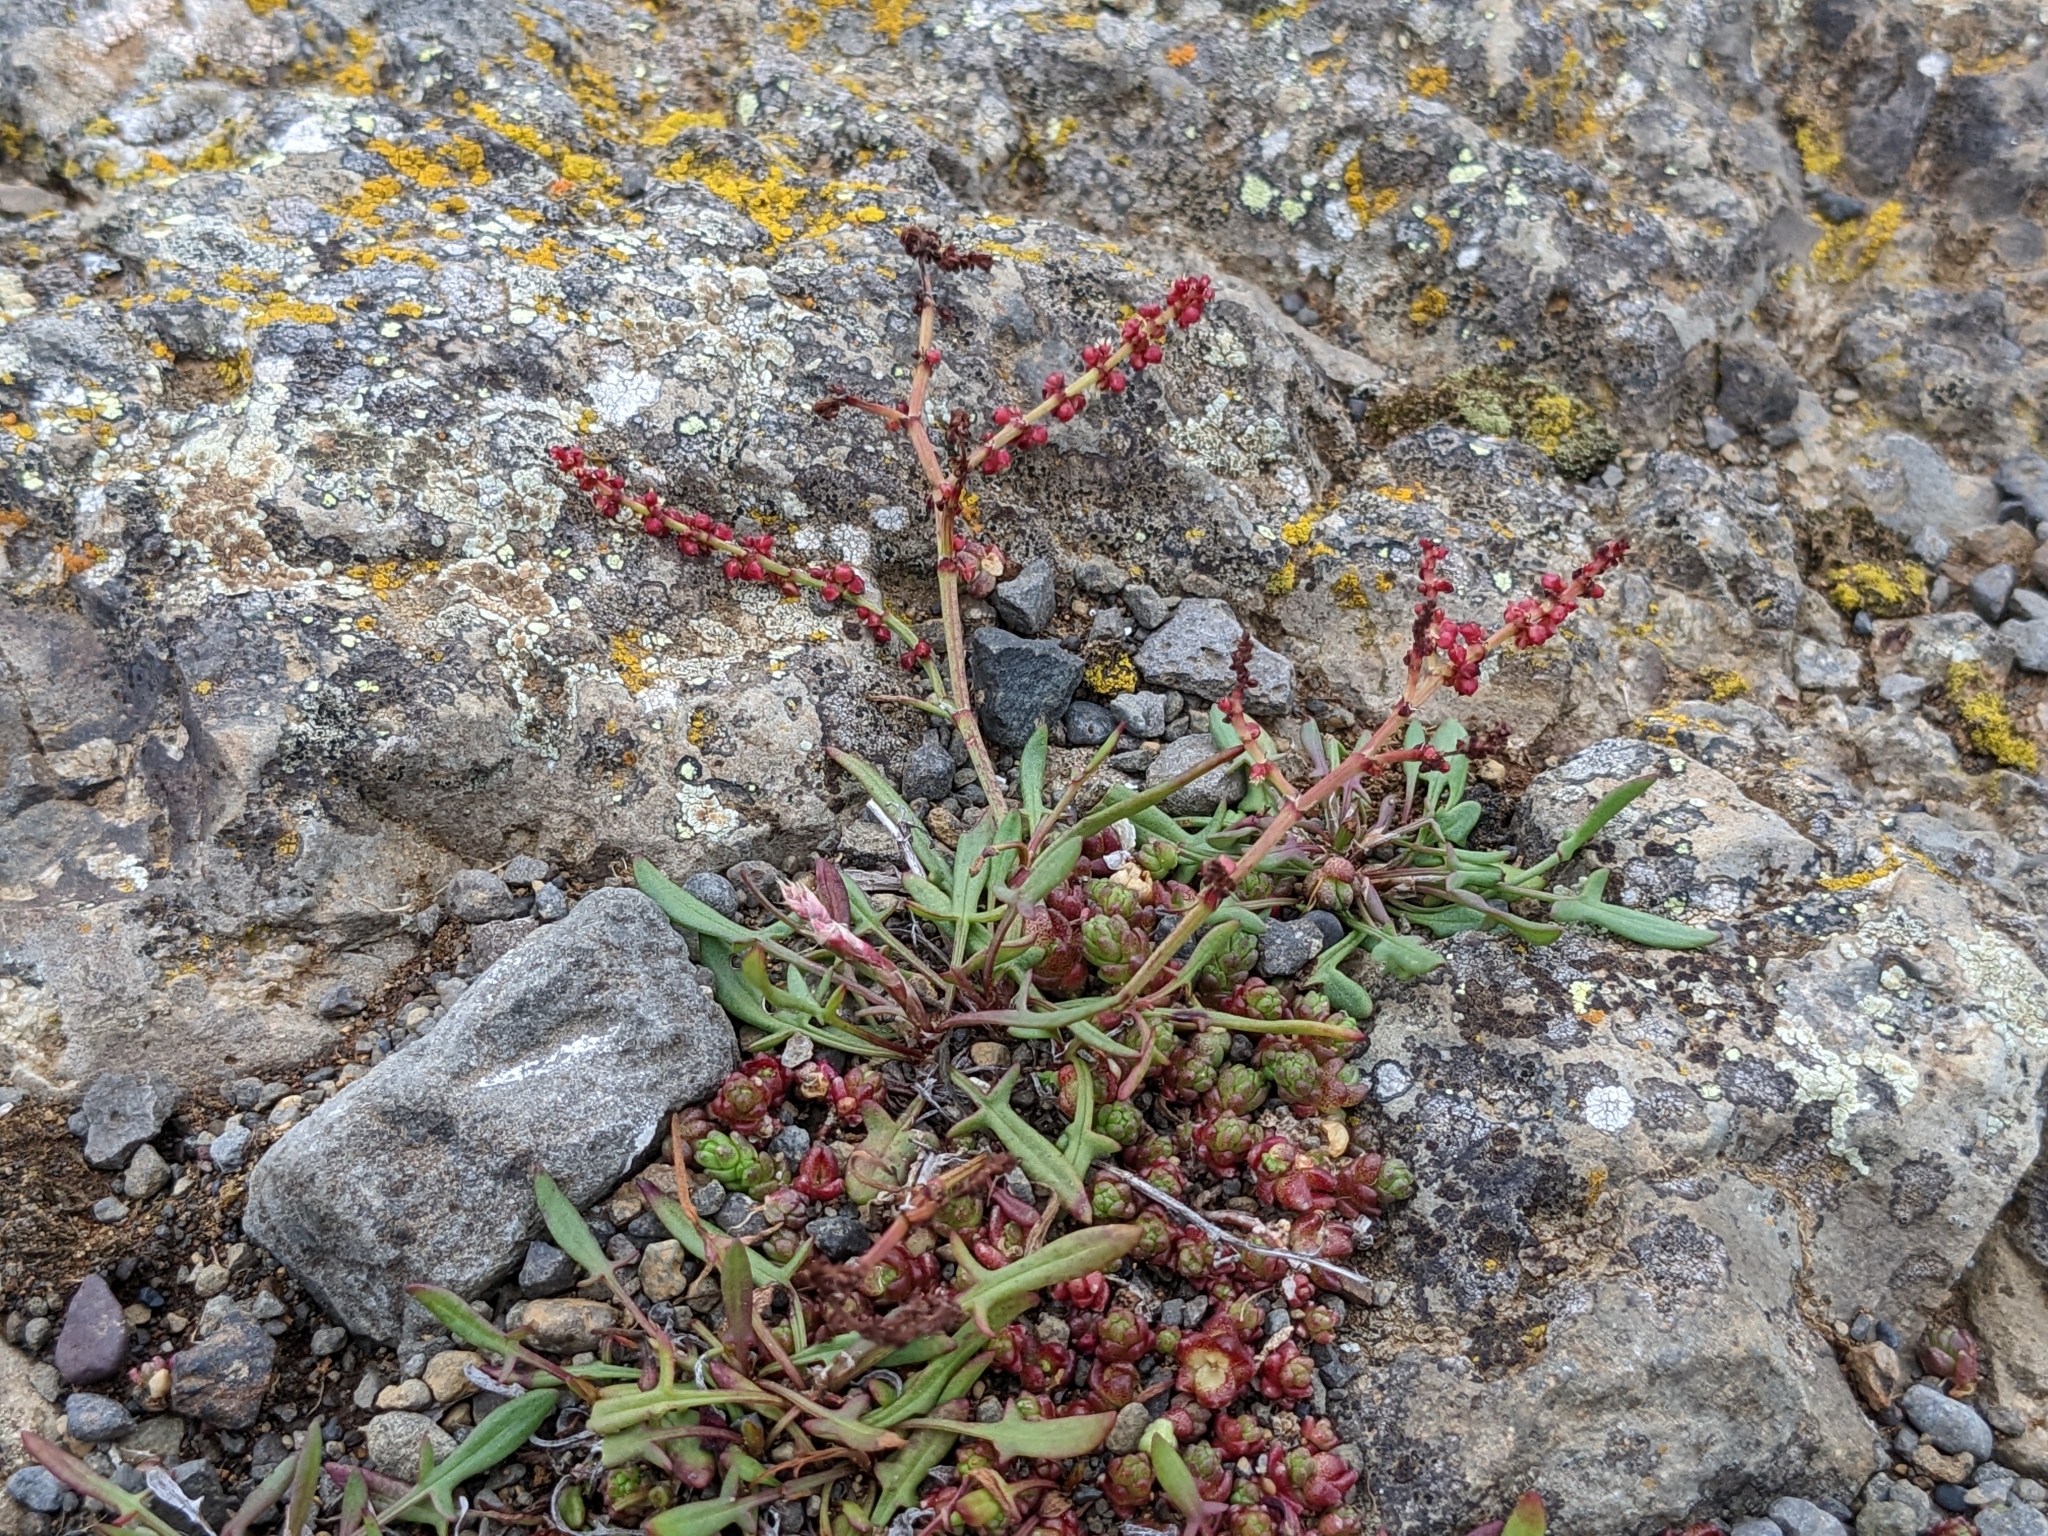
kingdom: Plantae
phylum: Tracheophyta
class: Magnoliopsida
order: Caryophyllales
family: Polygonaceae
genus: Rumex
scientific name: Rumex acetosella
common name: Common sheep sorrel
